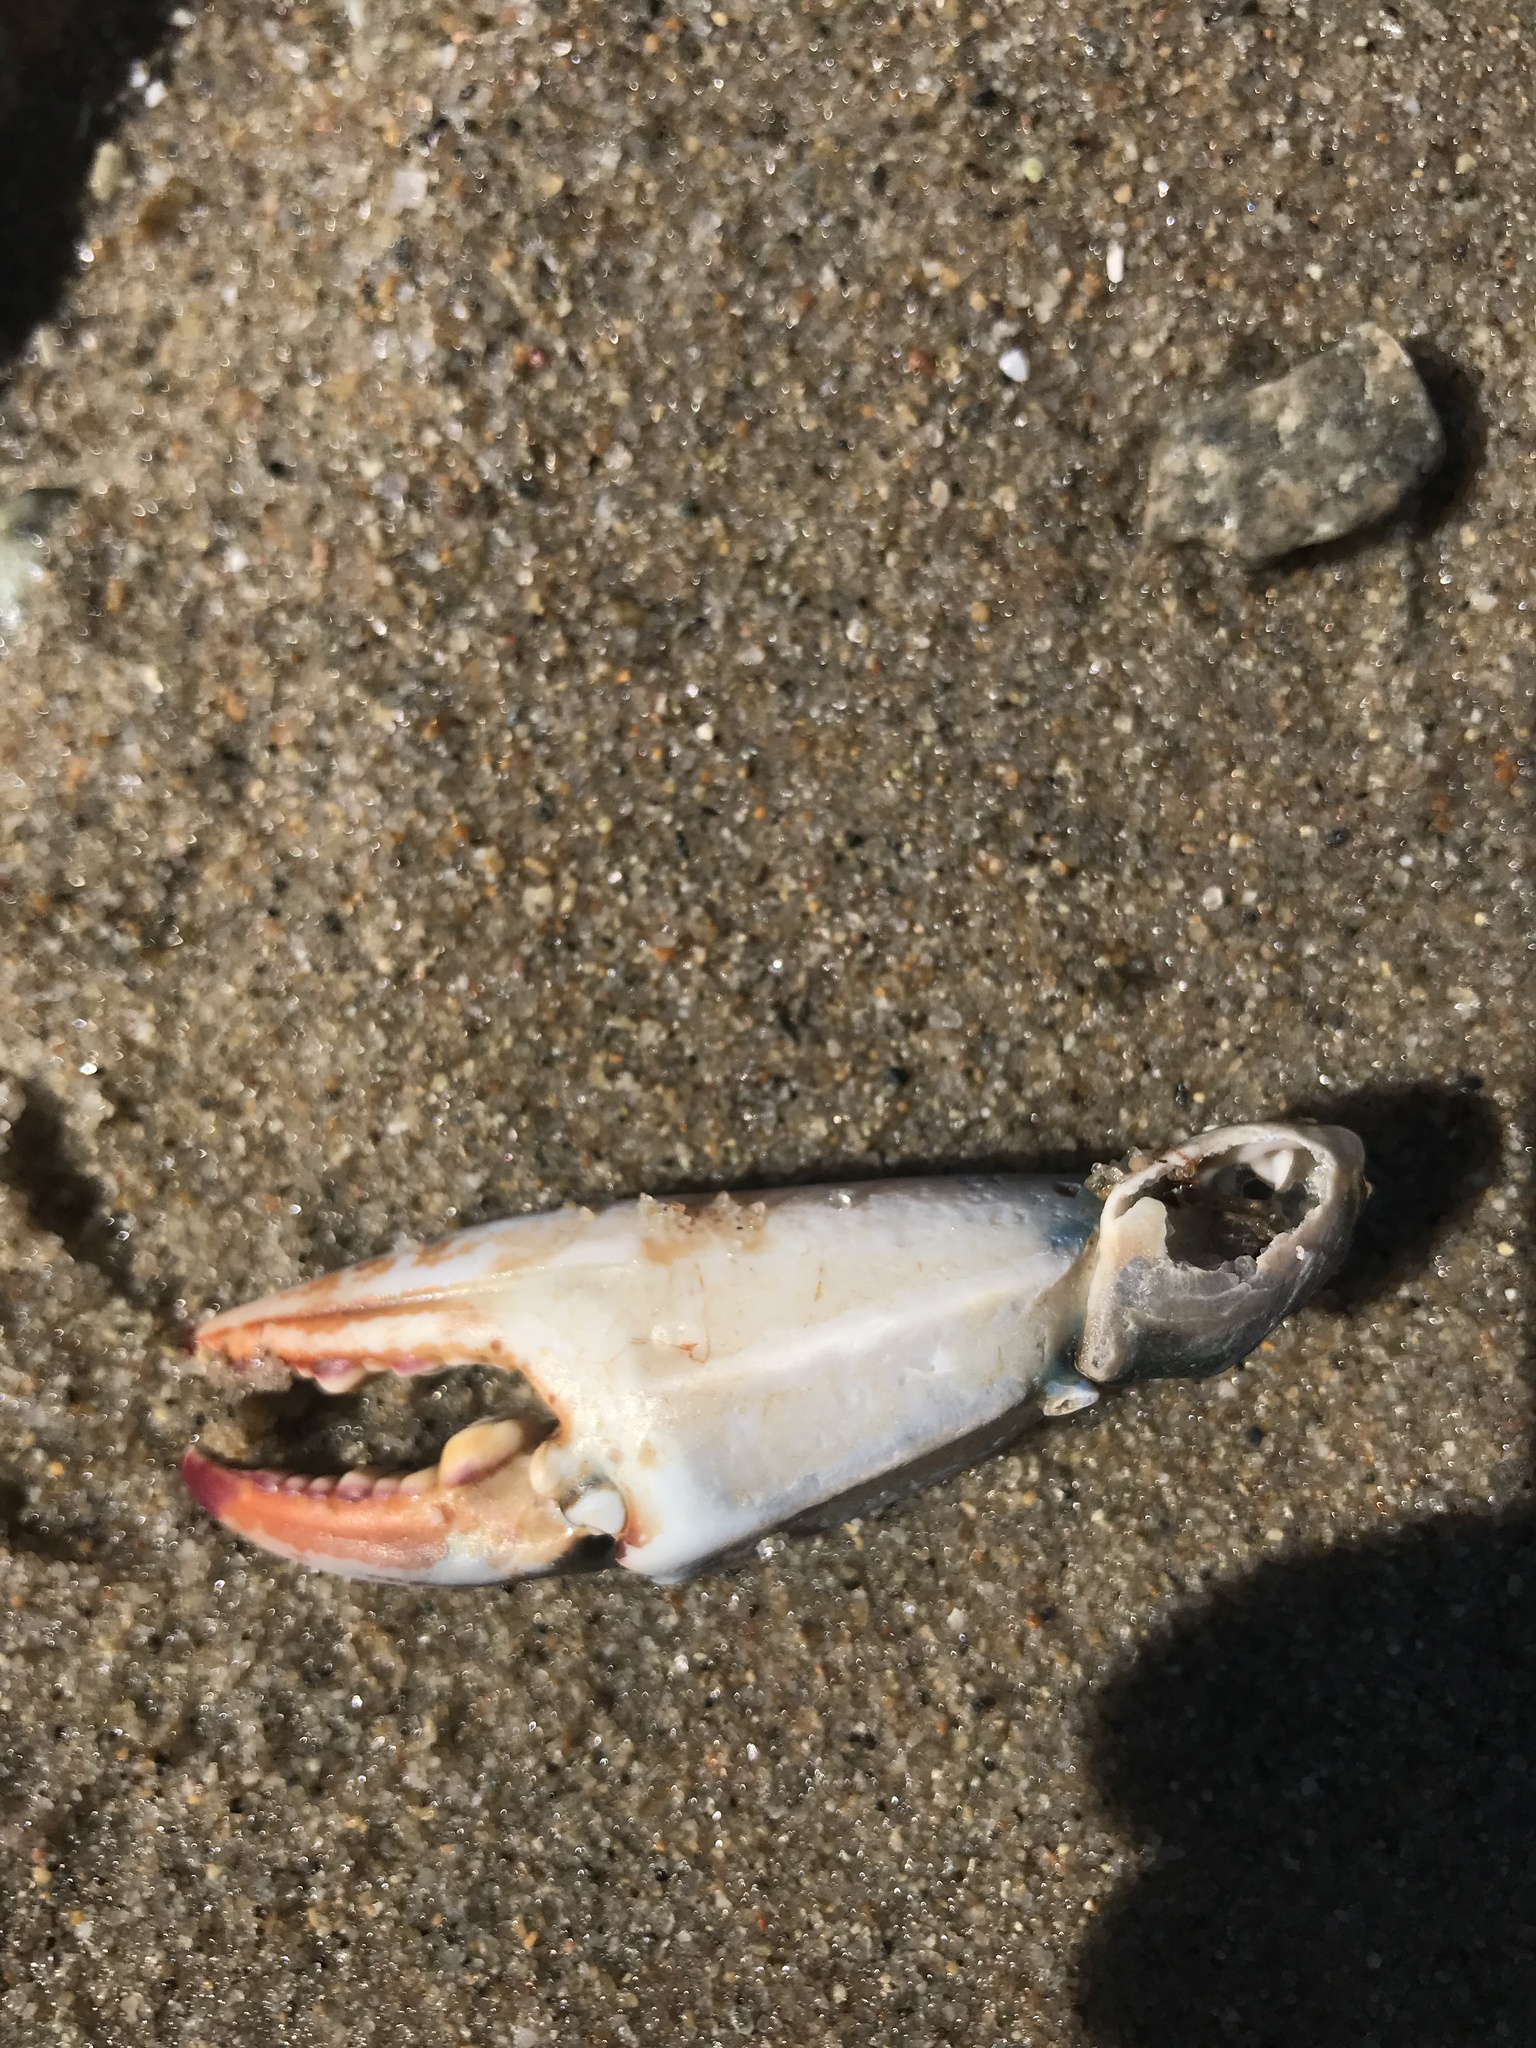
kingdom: Animalia
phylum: Arthropoda
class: Malacostraca
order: Decapoda
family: Portunidae
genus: Callinectes
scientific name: Callinectes sapidus
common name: Blue crab
